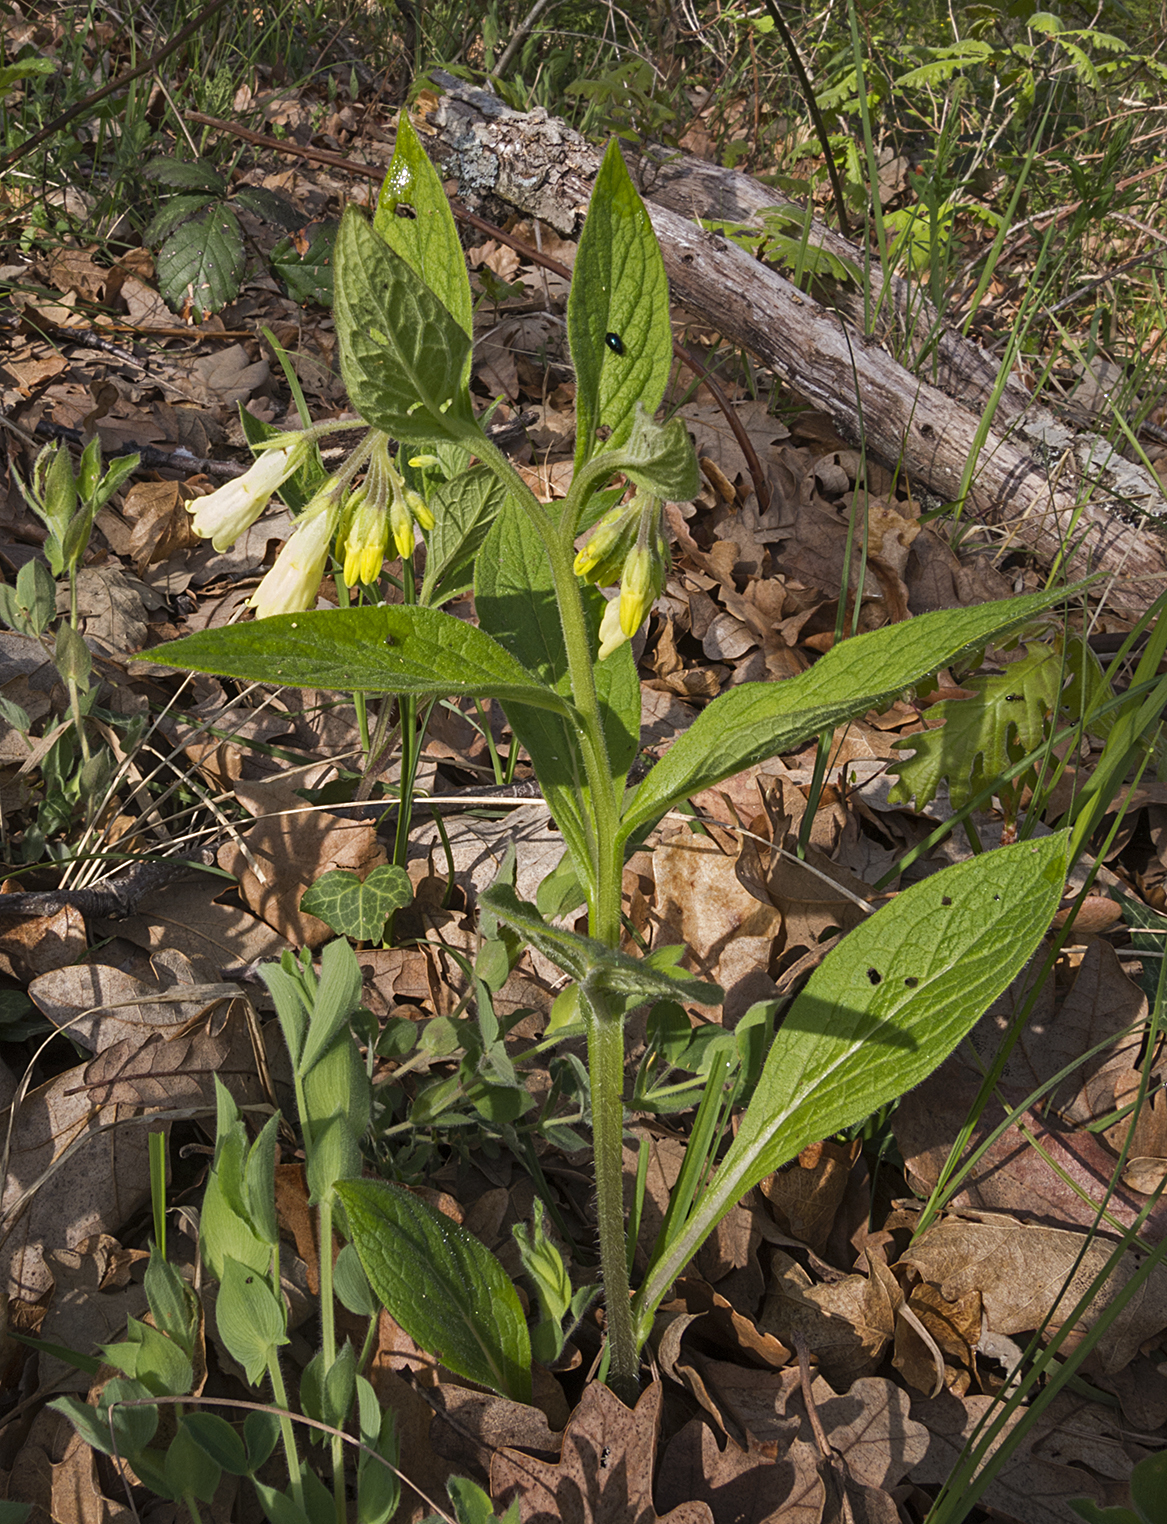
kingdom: Plantae
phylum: Tracheophyta
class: Magnoliopsida
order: Boraginales
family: Boraginaceae
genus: Symphytum
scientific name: Symphytum tuberosum
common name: Tuberous comfrey
